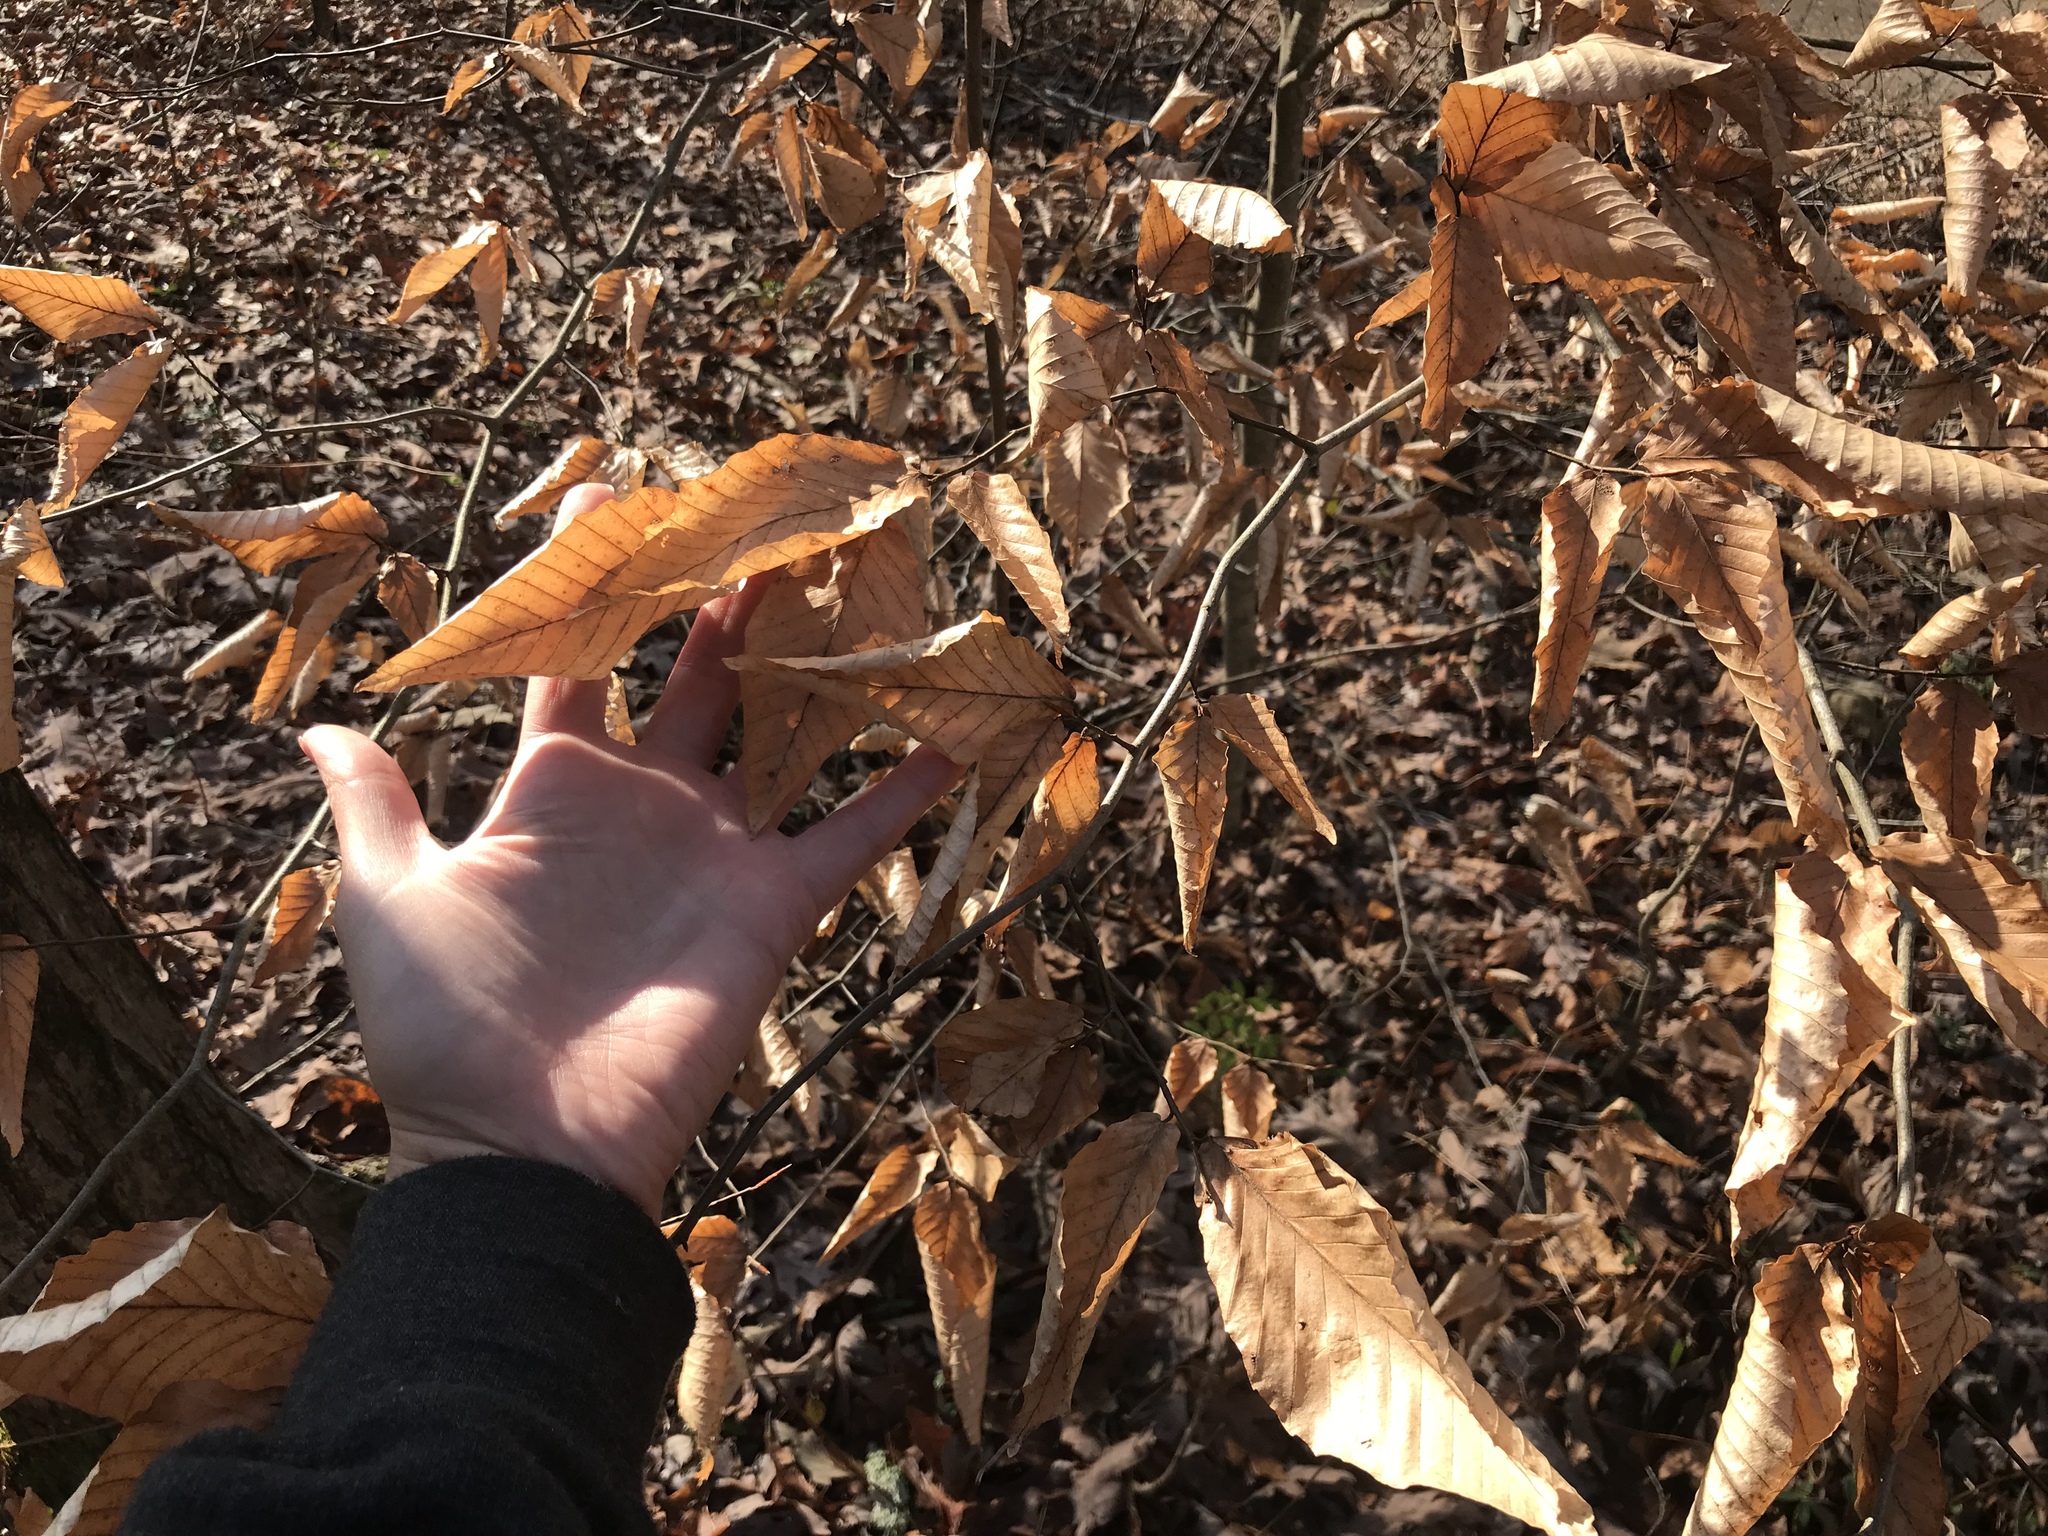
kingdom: Plantae
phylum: Tracheophyta
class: Magnoliopsida
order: Fagales
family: Fagaceae
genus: Fagus
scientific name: Fagus grandifolia
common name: American beech
